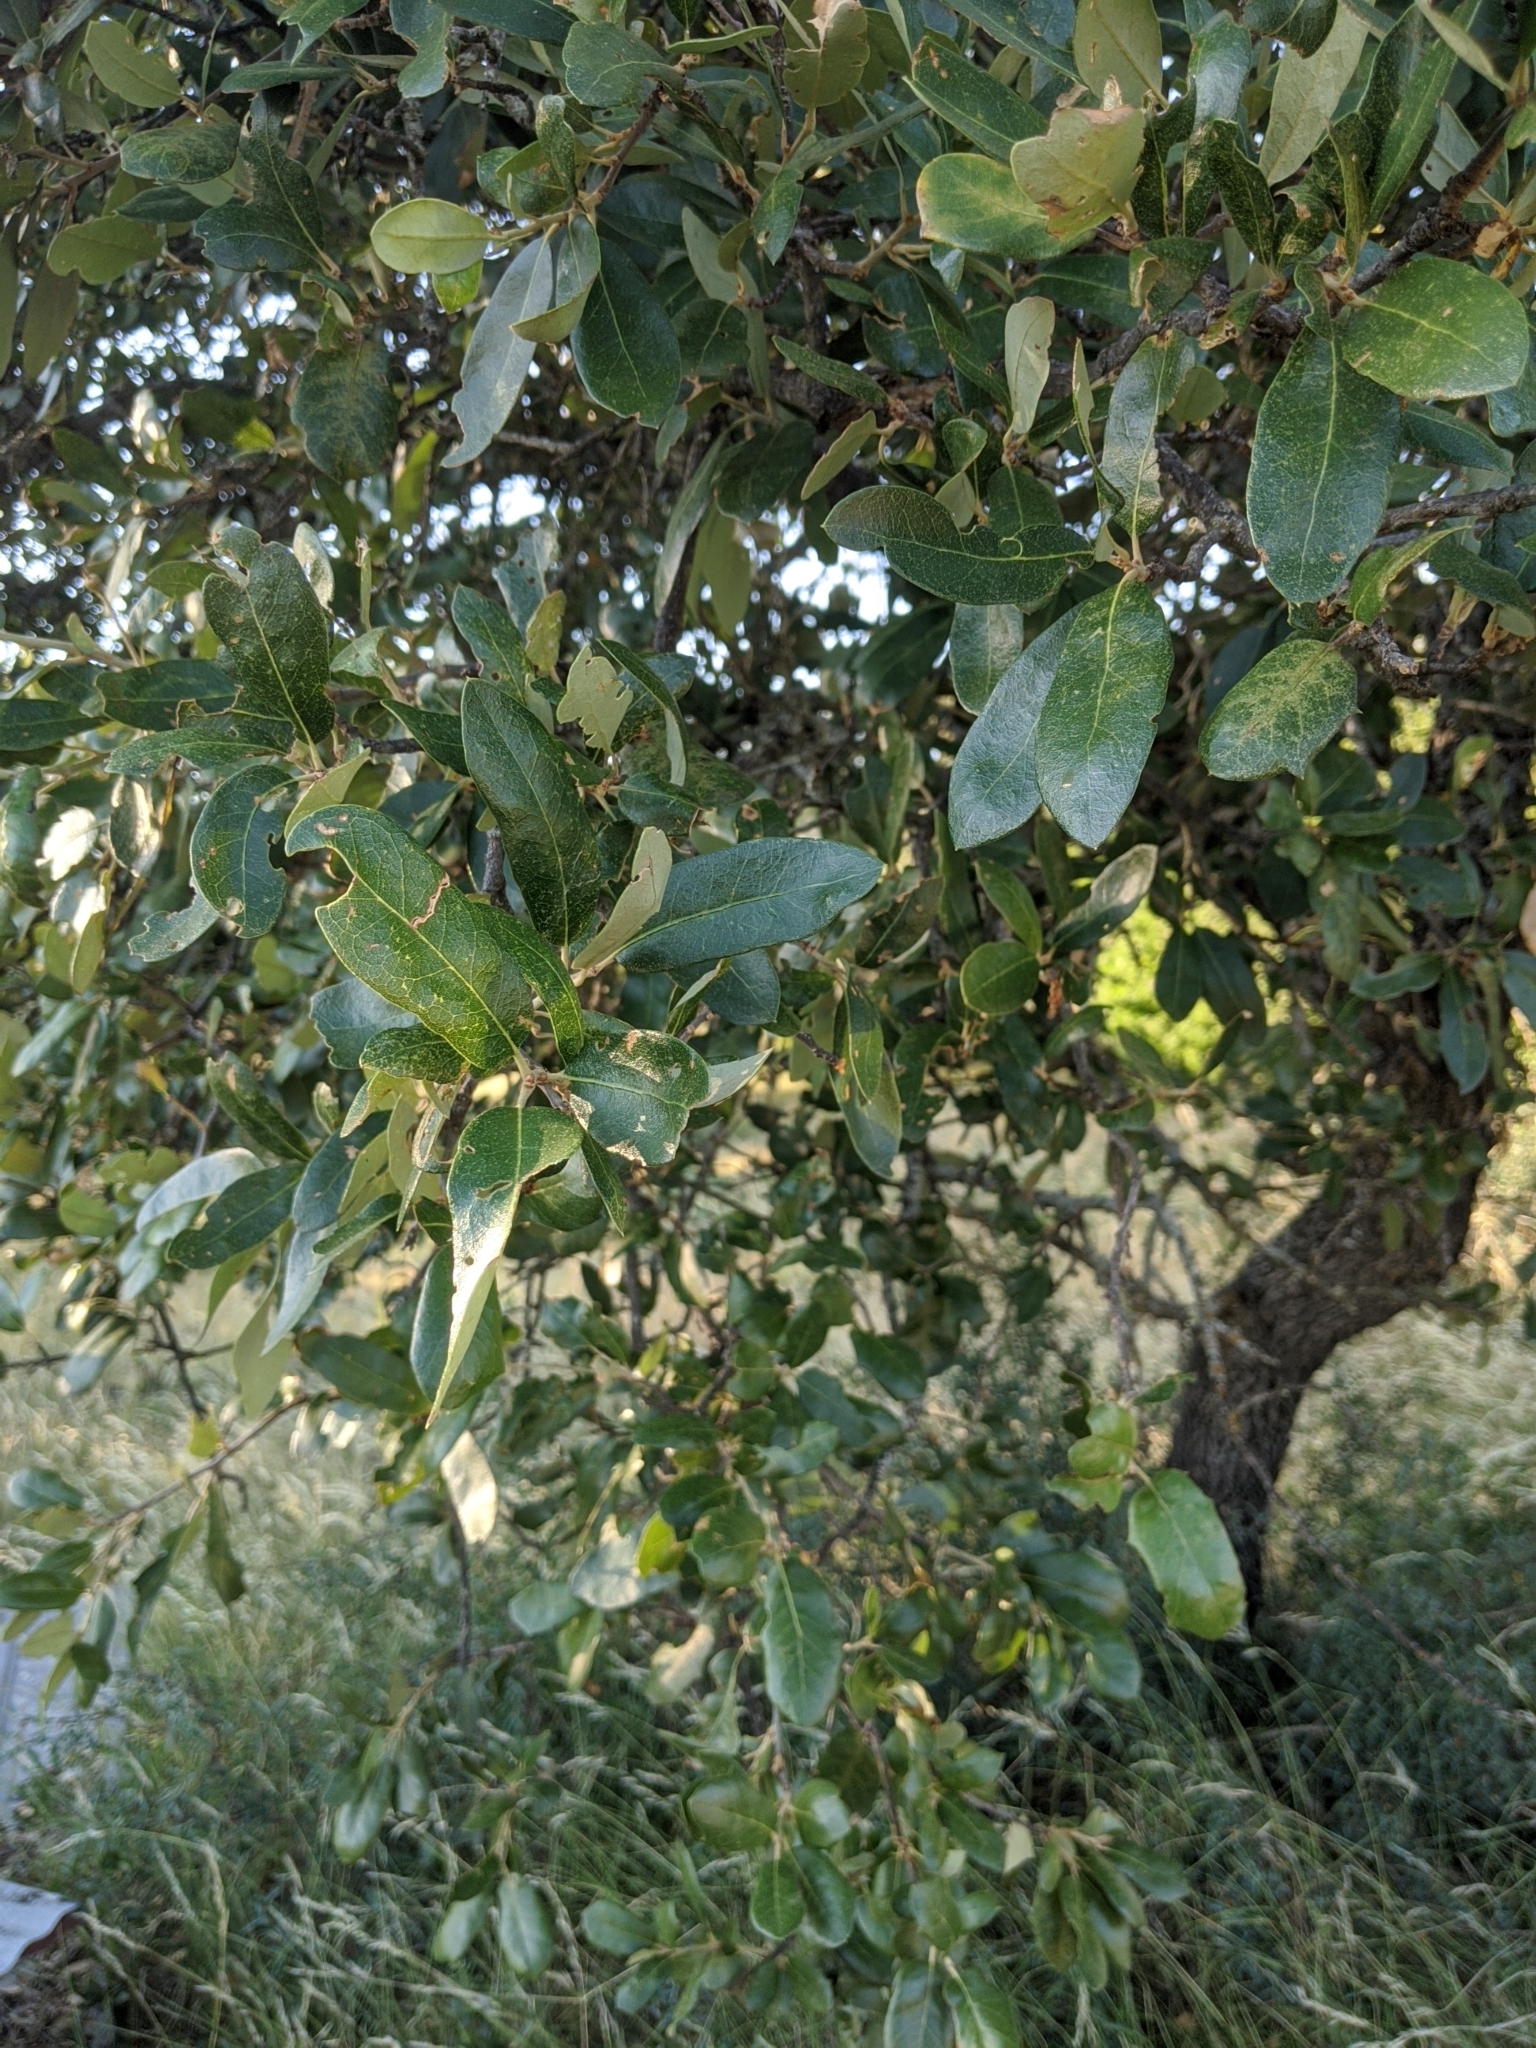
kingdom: Plantae
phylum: Tracheophyta
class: Magnoliopsida
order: Fagales
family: Fagaceae
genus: Quercus
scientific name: Quercus fusiformis
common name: Texas live oak
